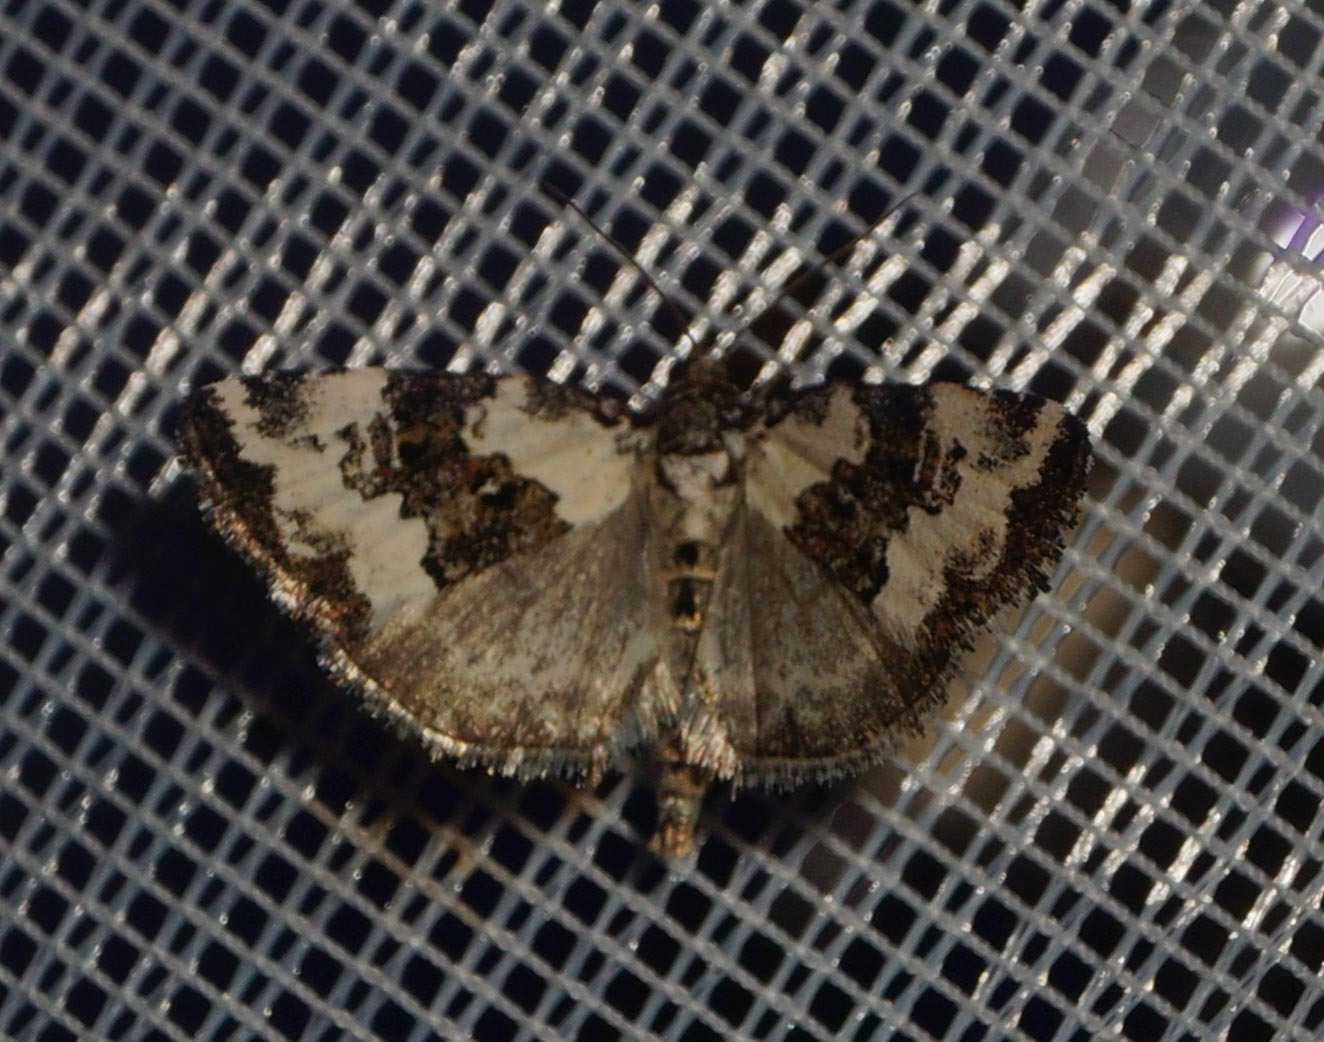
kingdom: Animalia
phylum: Arthropoda
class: Insecta
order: Lepidoptera
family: Noctuidae
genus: Deltote
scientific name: Deltote deceptoria
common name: Pretty marbled
